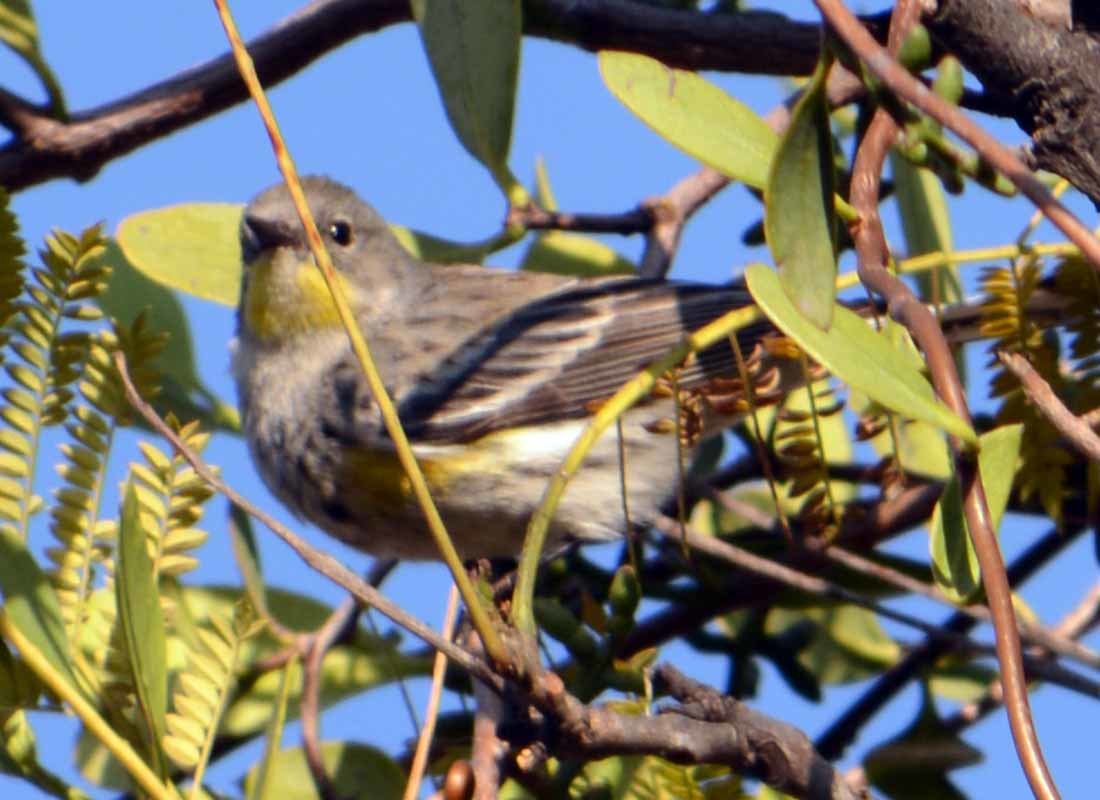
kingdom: Animalia
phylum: Chordata
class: Aves
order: Passeriformes
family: Parulidae
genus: Setophaga
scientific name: Setophaga coronata
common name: Myrtle warbler
